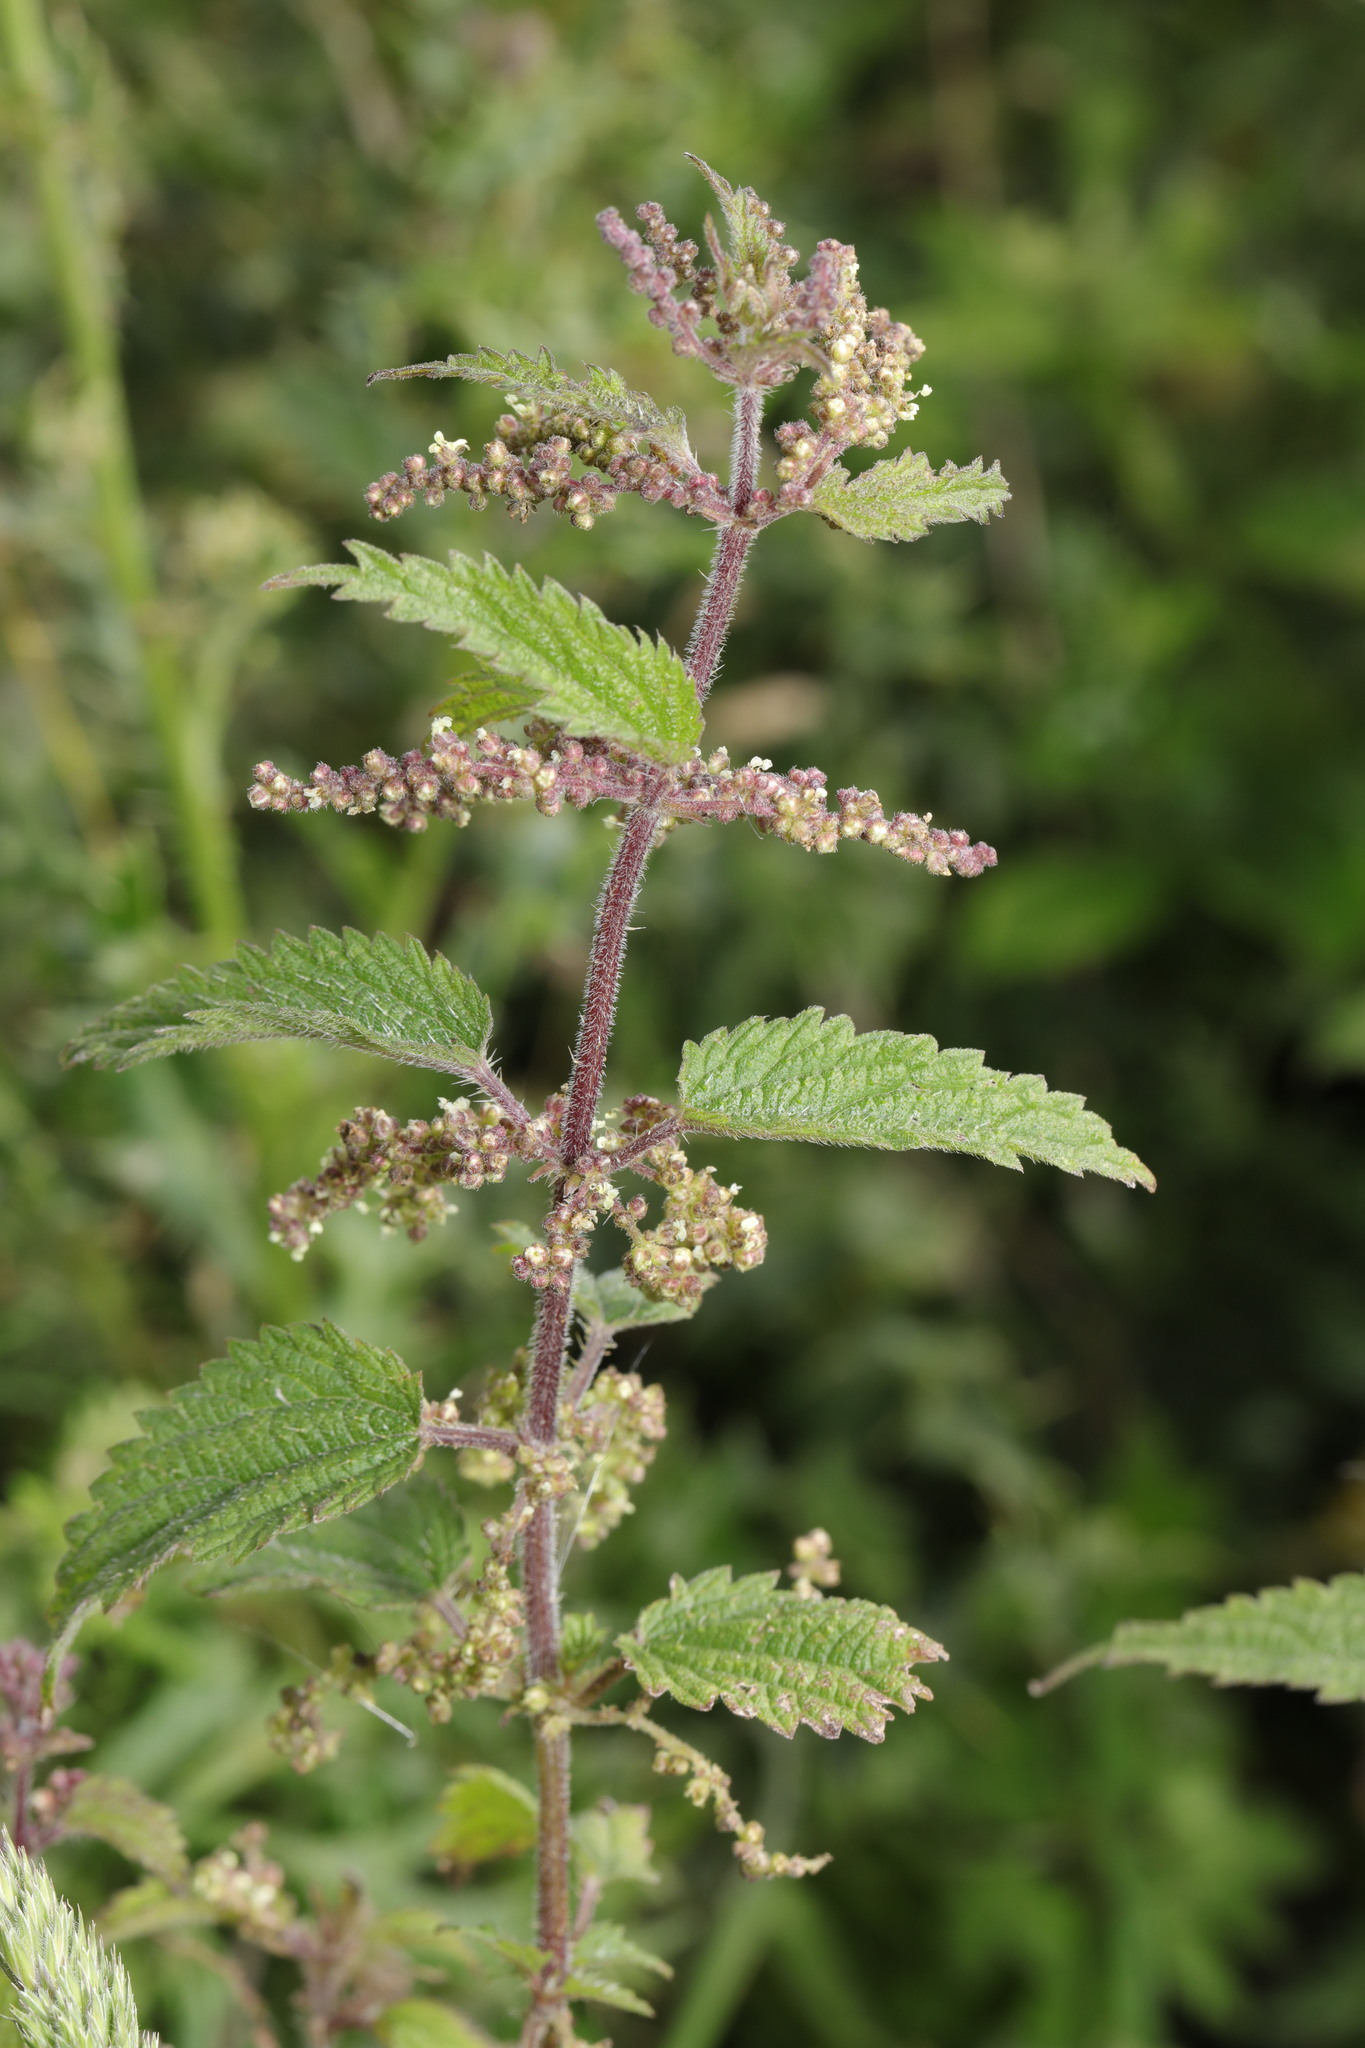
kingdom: Plantae
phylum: Tracheophyta
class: Magnoliopsida
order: Rosales
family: Urticaceae
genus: Urtica
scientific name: Urtica dioica
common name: Common nettle
